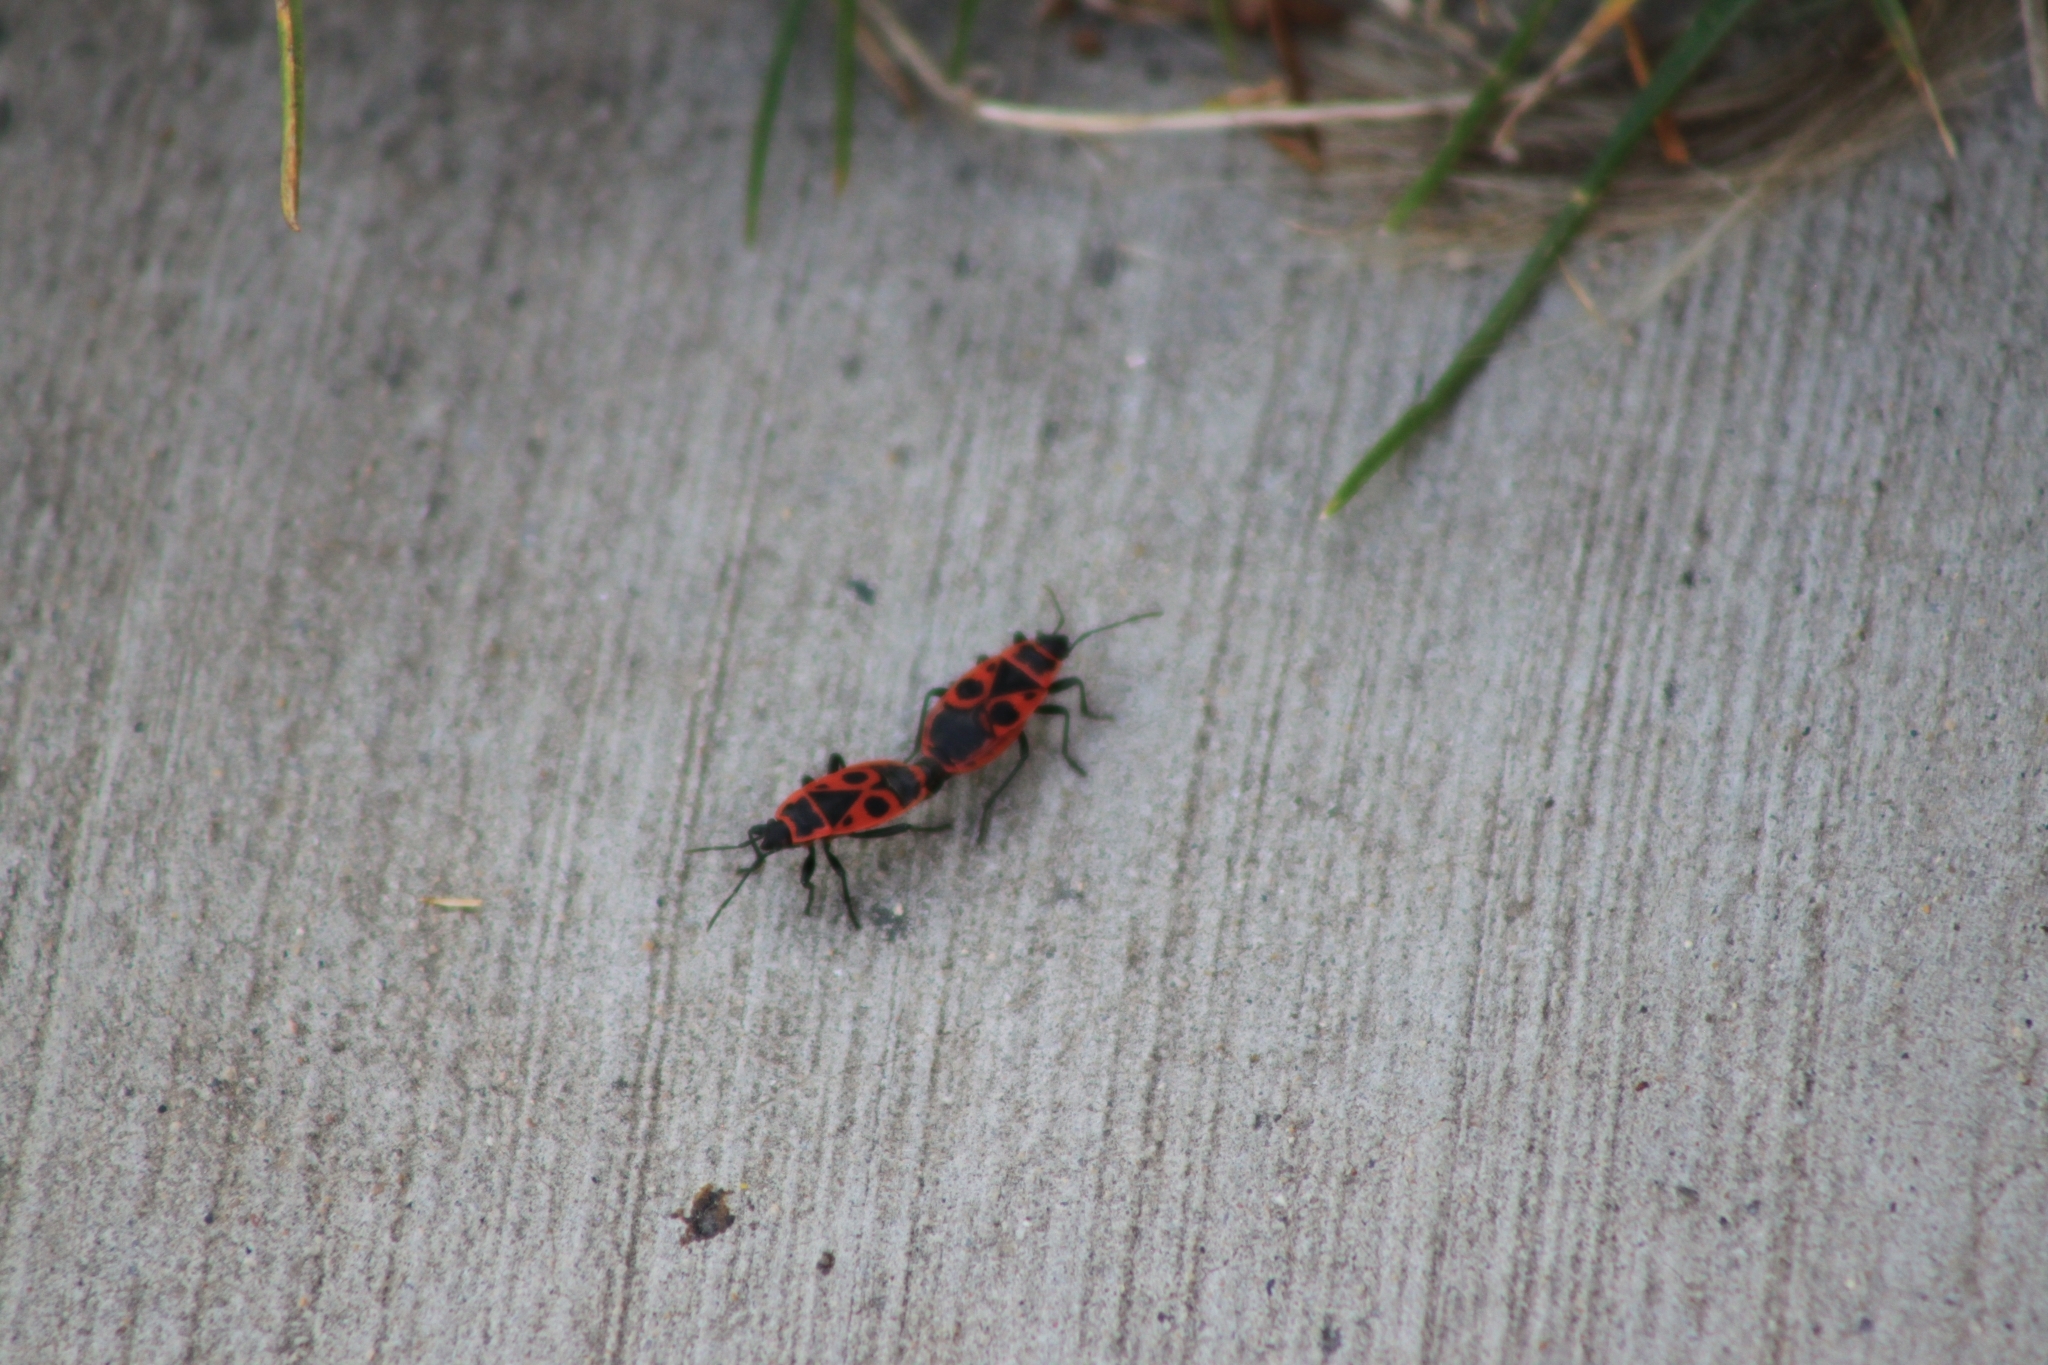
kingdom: Animalia
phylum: Arthropoda
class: Insecta
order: Hemiptera
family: Pyrrhocoridae
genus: Pyrrhocoris
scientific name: Pyrrhocoris apterus
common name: Firebug
